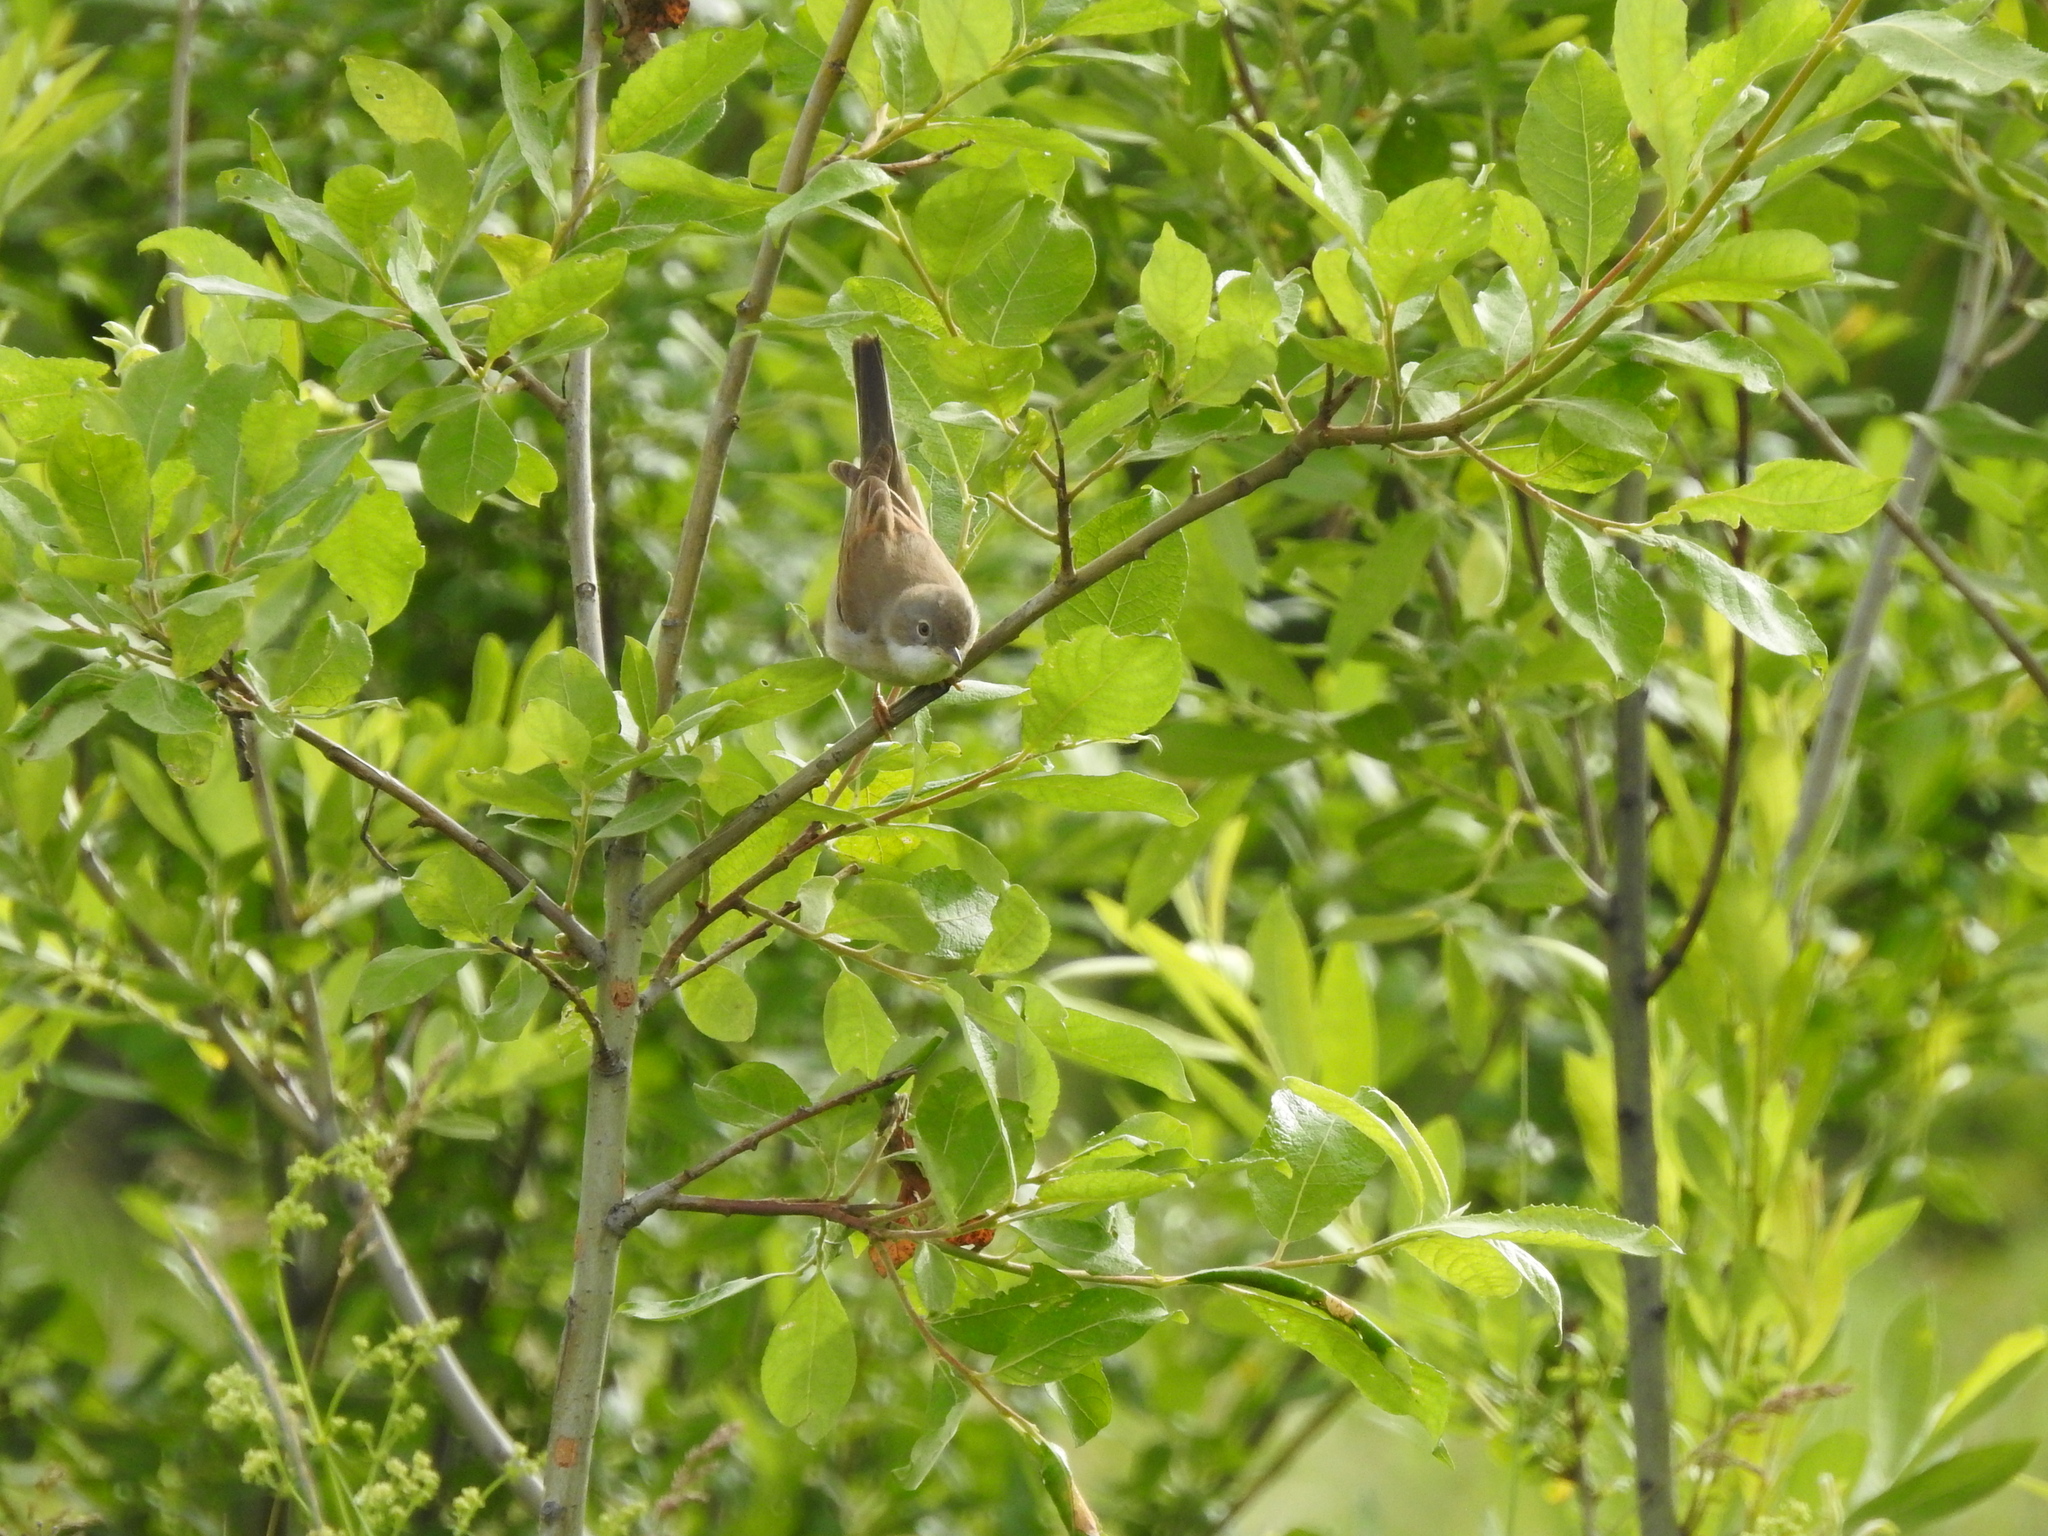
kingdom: Animalia
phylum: Chordata
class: Aves
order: Passeriformes
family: Sylviidae
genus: Sylvia
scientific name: Sylvia communis
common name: Common whitethroat
